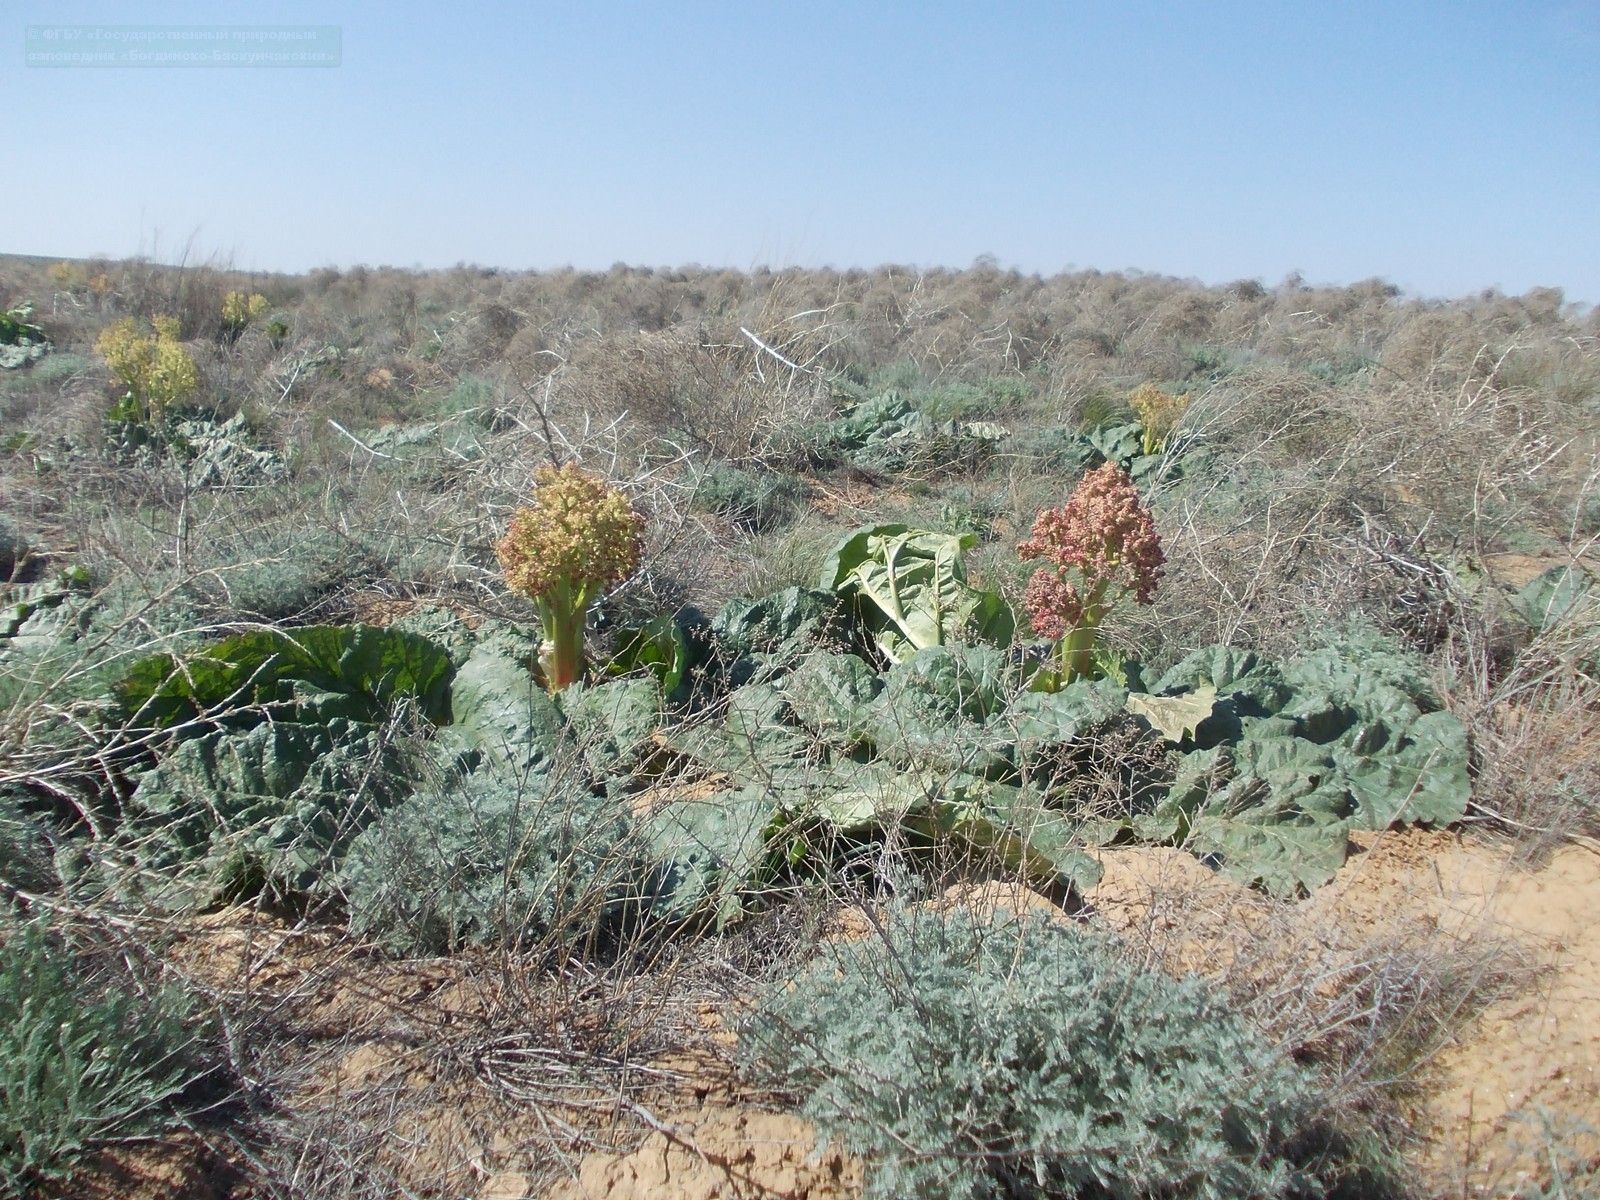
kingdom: Plantae
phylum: Tracheophyta
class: Magnoliopsida
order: Caryophyllales
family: Polygonaceae
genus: Rheum
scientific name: Rheum tataricum
